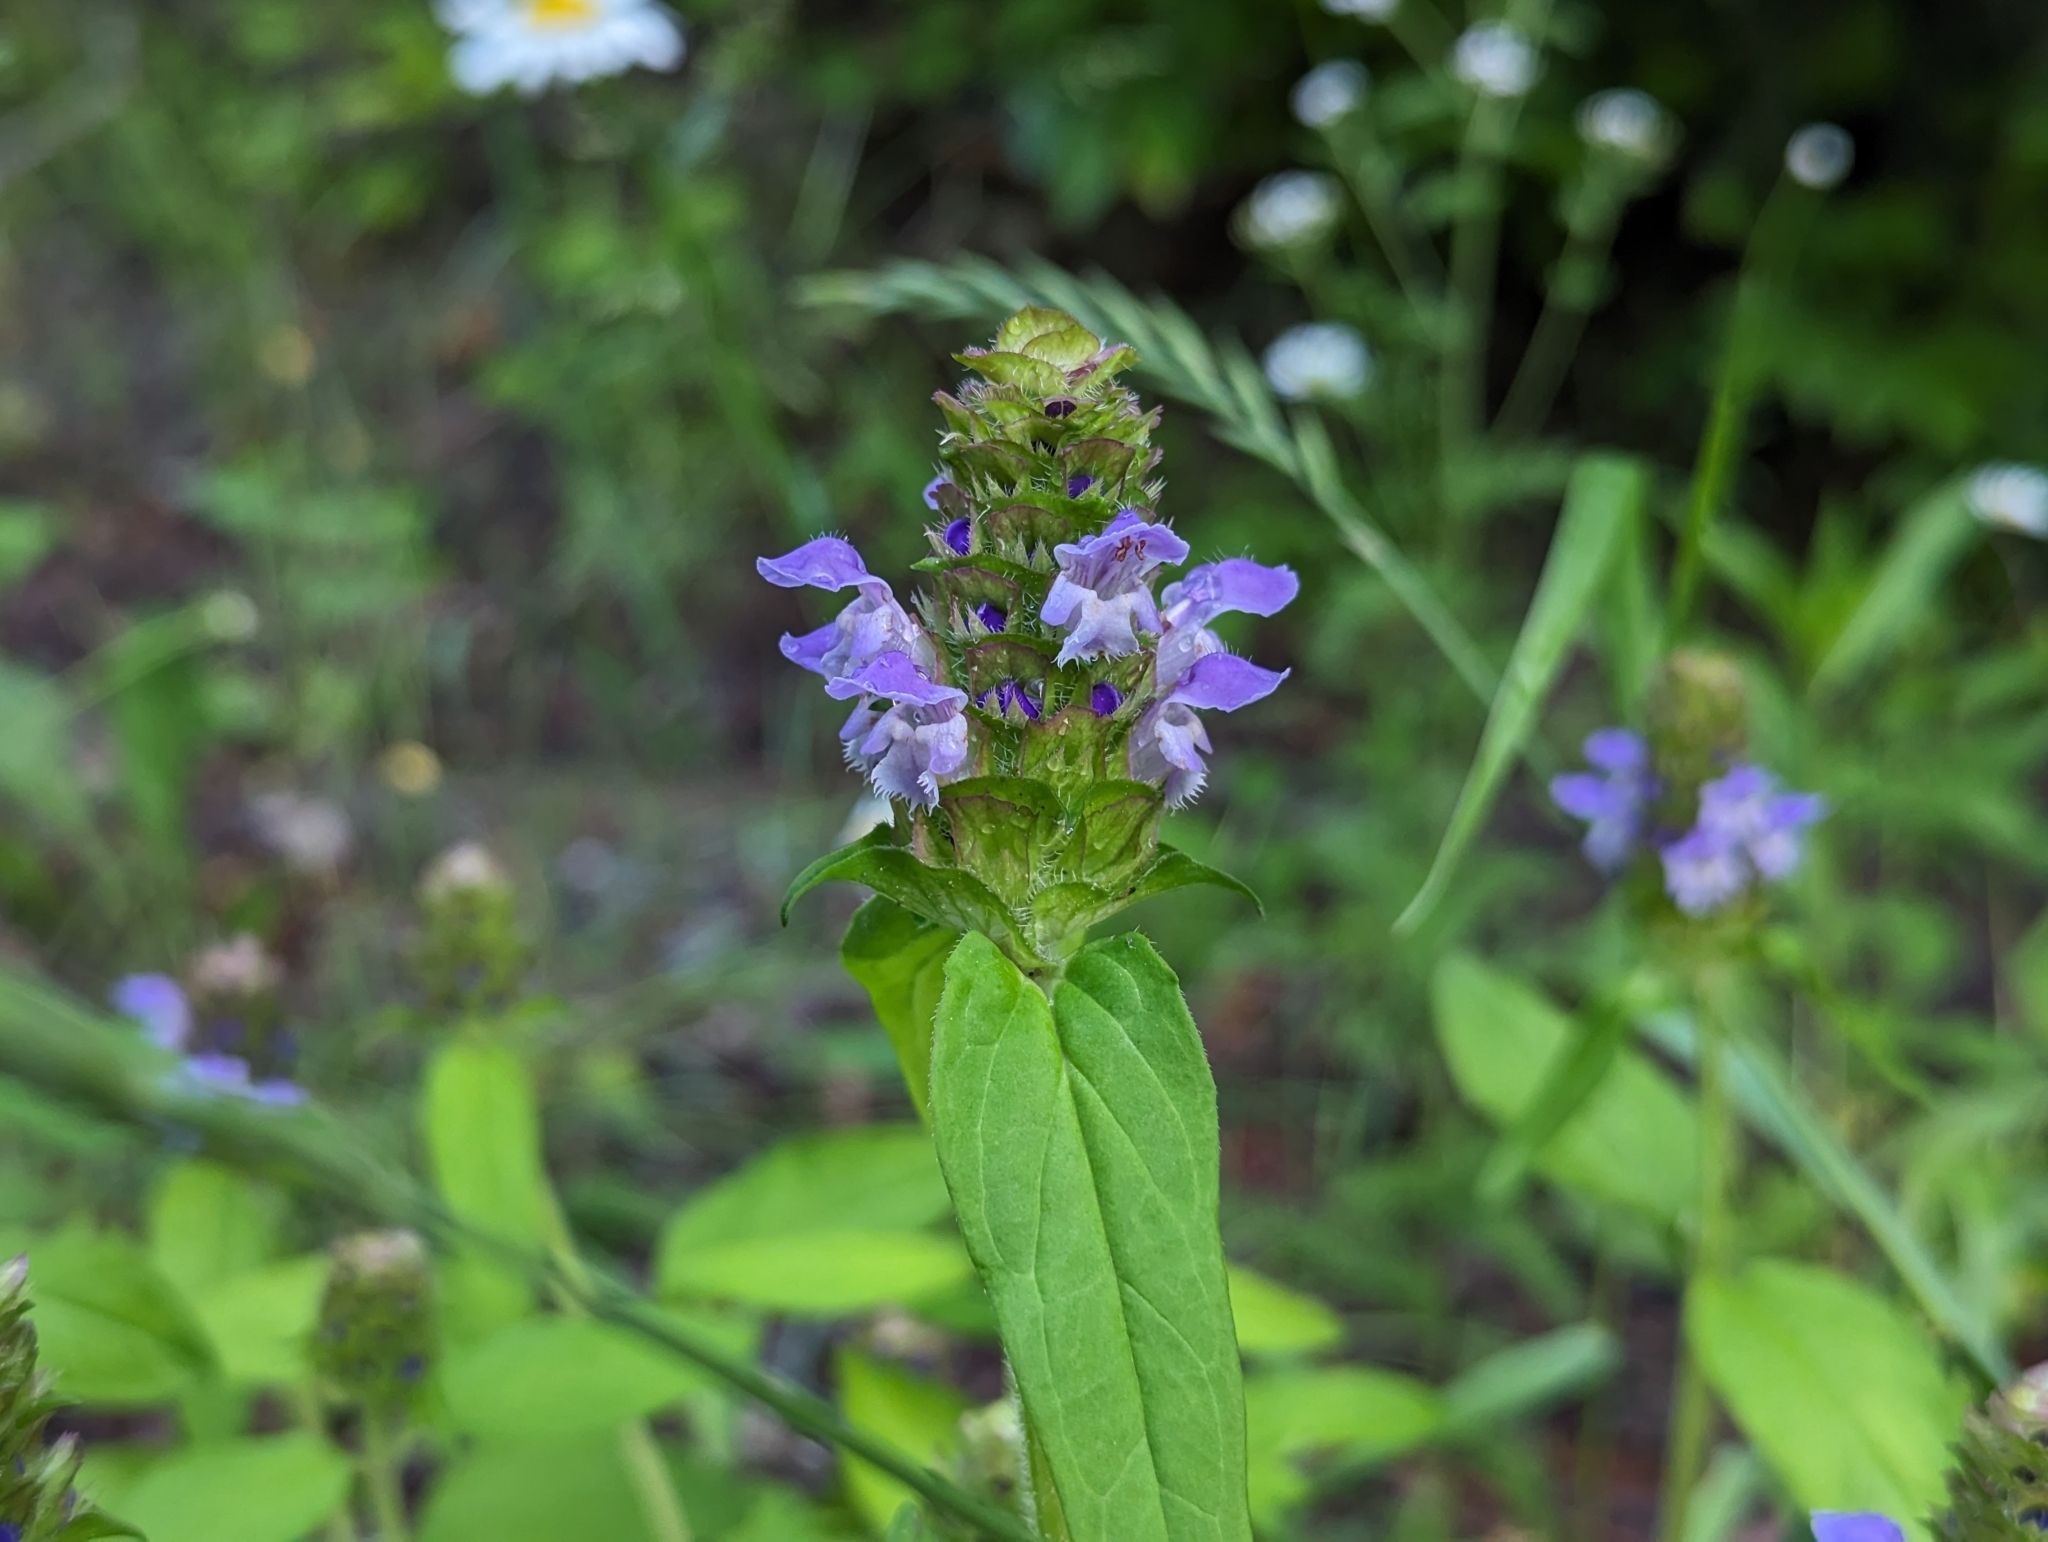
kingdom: Plantae
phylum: Tracheophyta
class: Magnoliopsida
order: Lamiales
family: Lamiaceae
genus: Prunella
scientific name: Prunella vulgaris
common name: Heal-all
